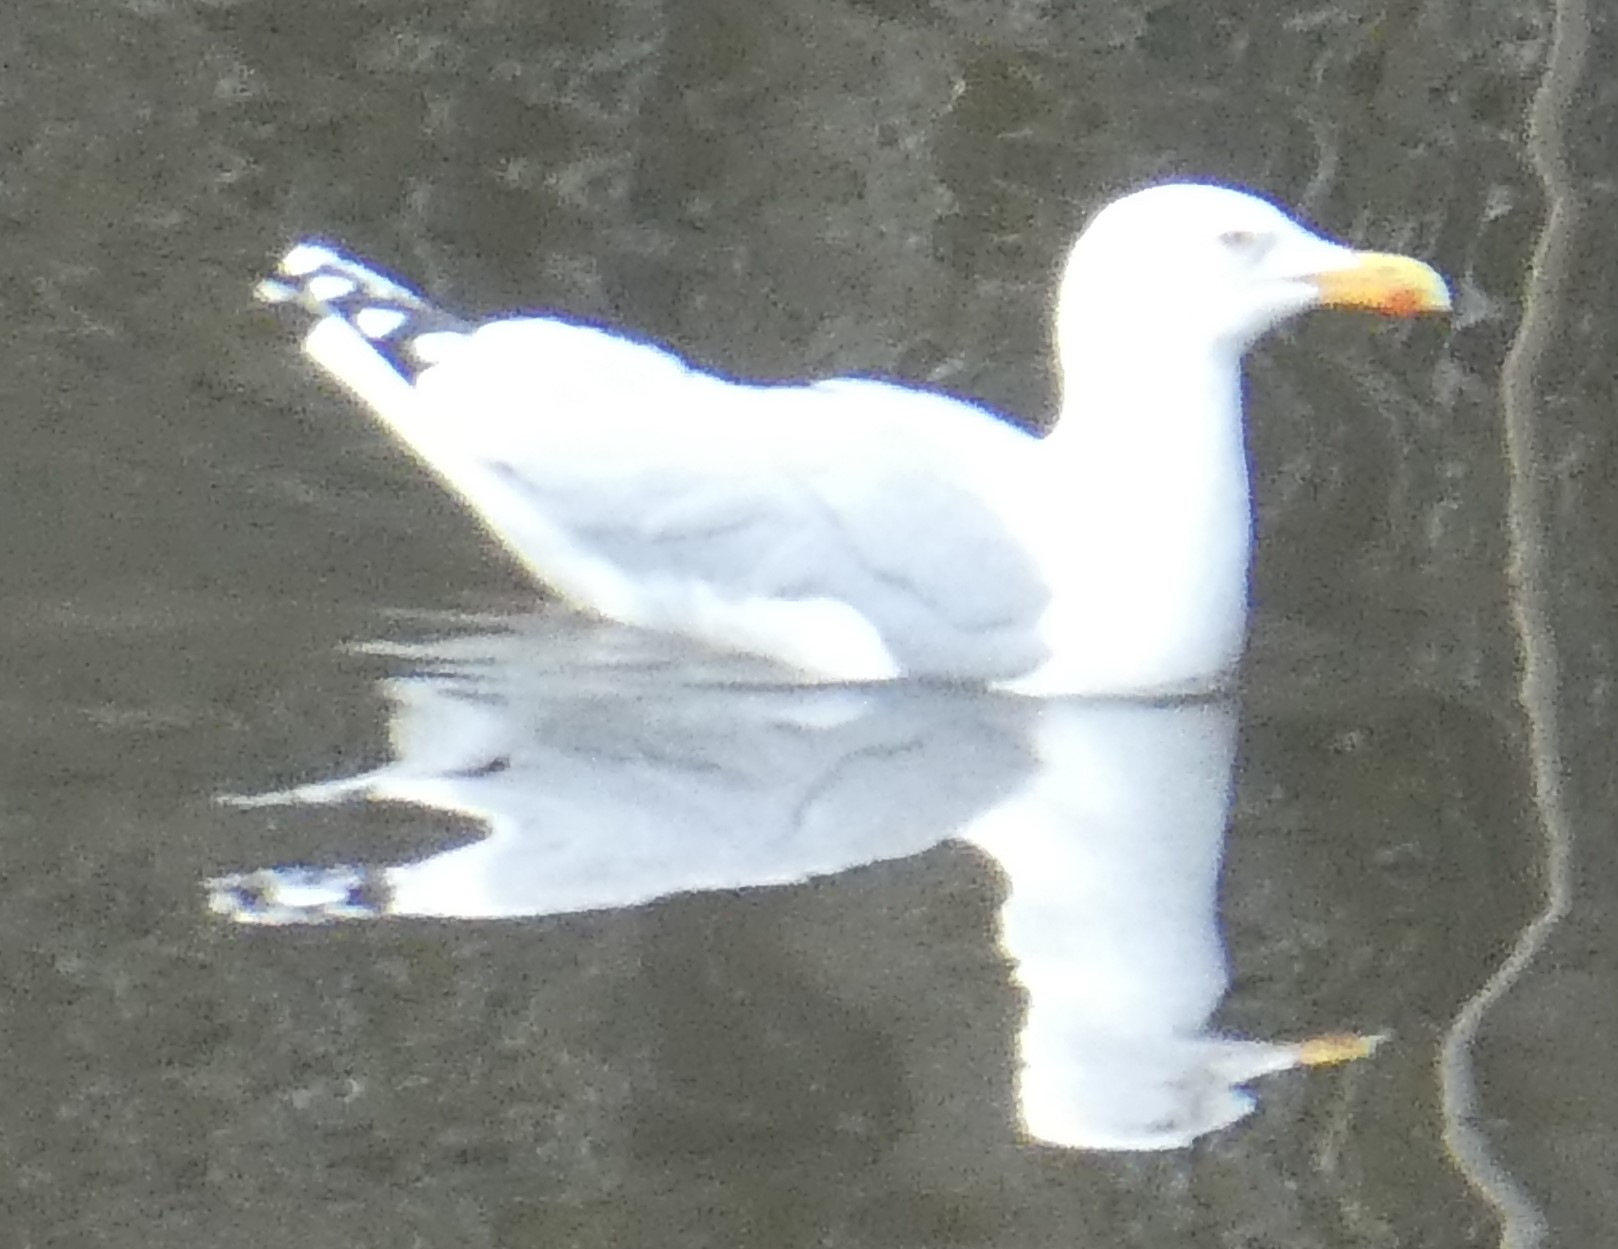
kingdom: Animalia
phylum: Chordata
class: Aves
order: Charadriiformes
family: Laridae
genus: Larus
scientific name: Larus argentatus
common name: Herring gull
